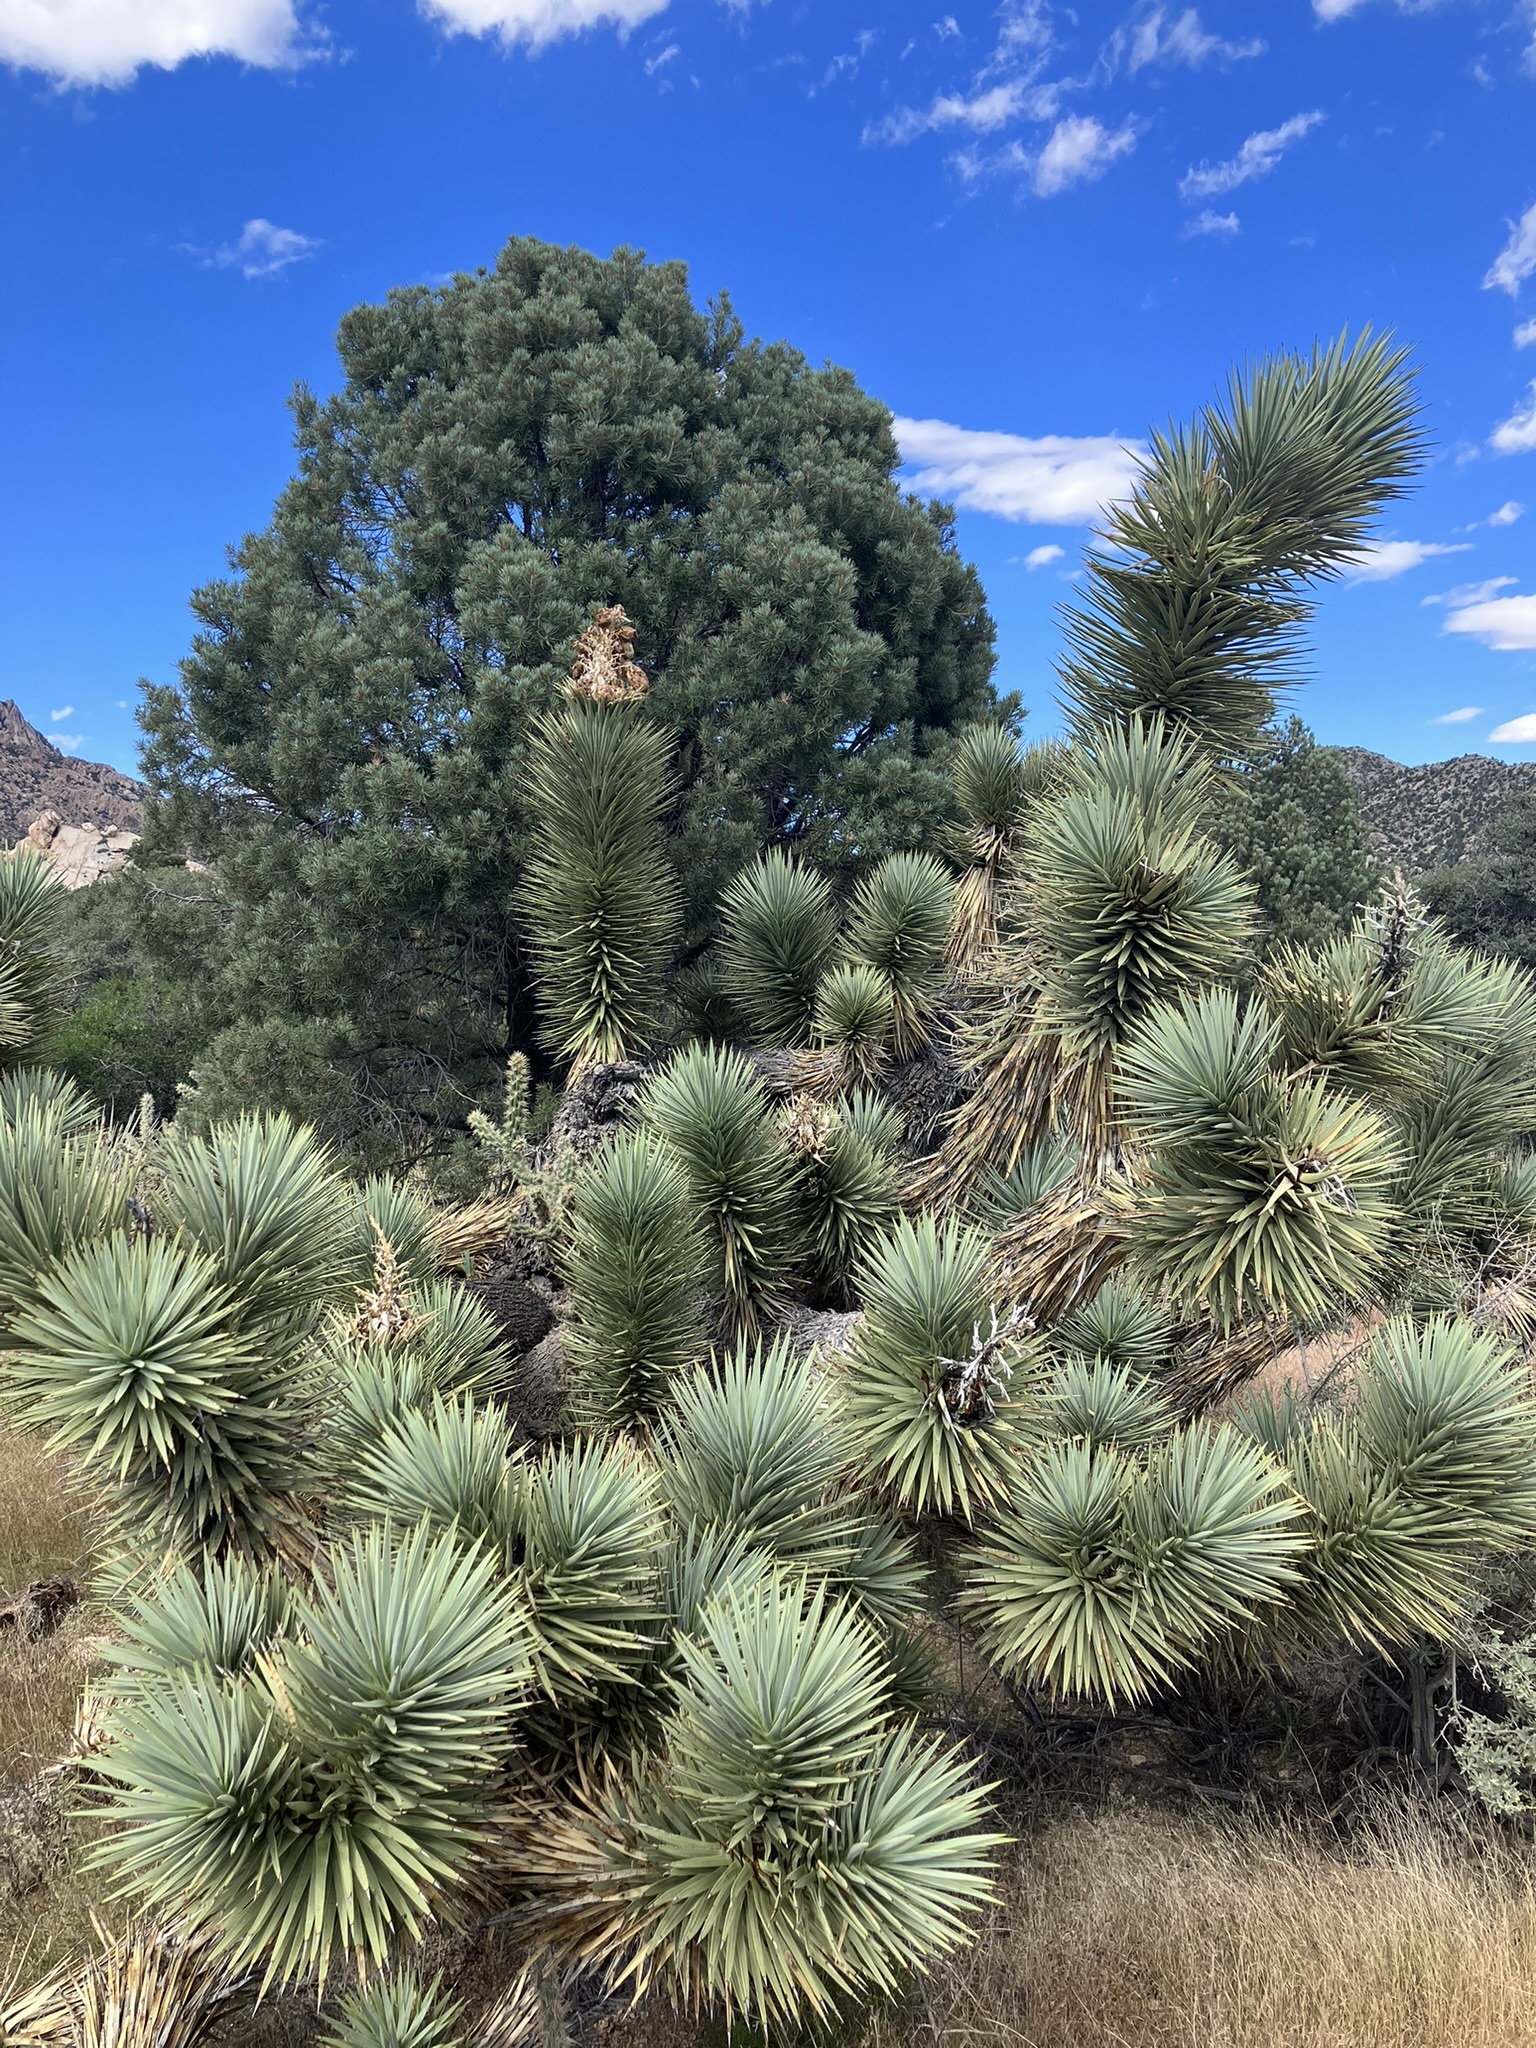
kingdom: Plantae
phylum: Tracheophyta
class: Liliopsida
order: Asparagales
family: Asparagaceae
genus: Yucca
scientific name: Yucca brevifolia
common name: Joshua tree
